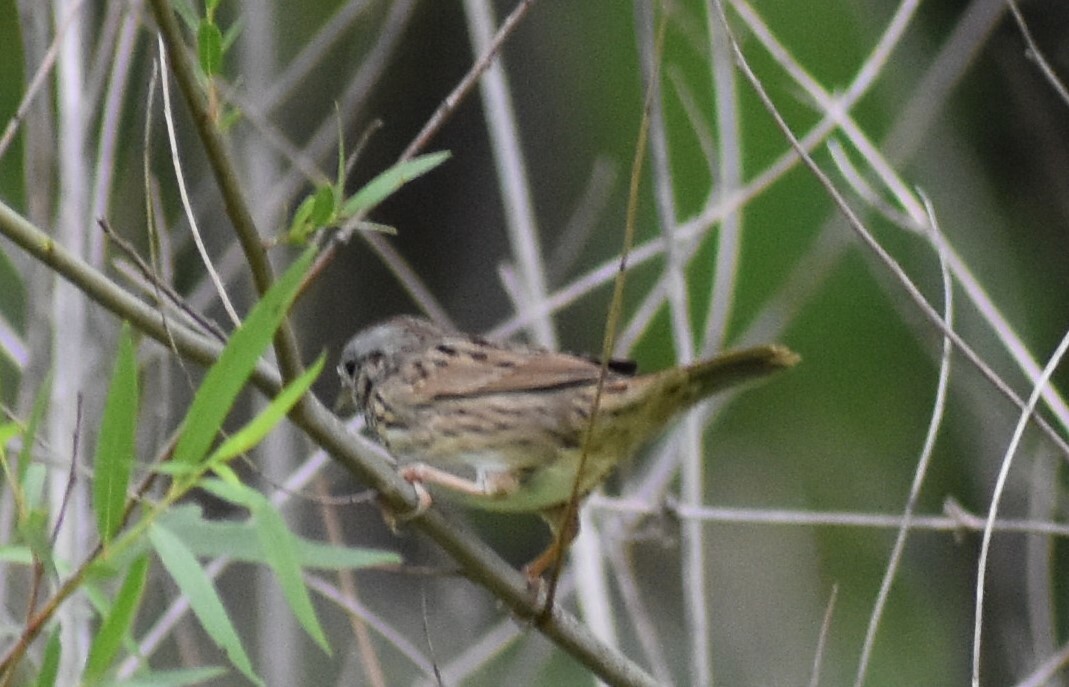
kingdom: Animalia
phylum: Chordata
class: Aves
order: Passeriformes
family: Passerellidae
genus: Melospiza
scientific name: Melospiza lincolnii
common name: Lincoln's sparrow
